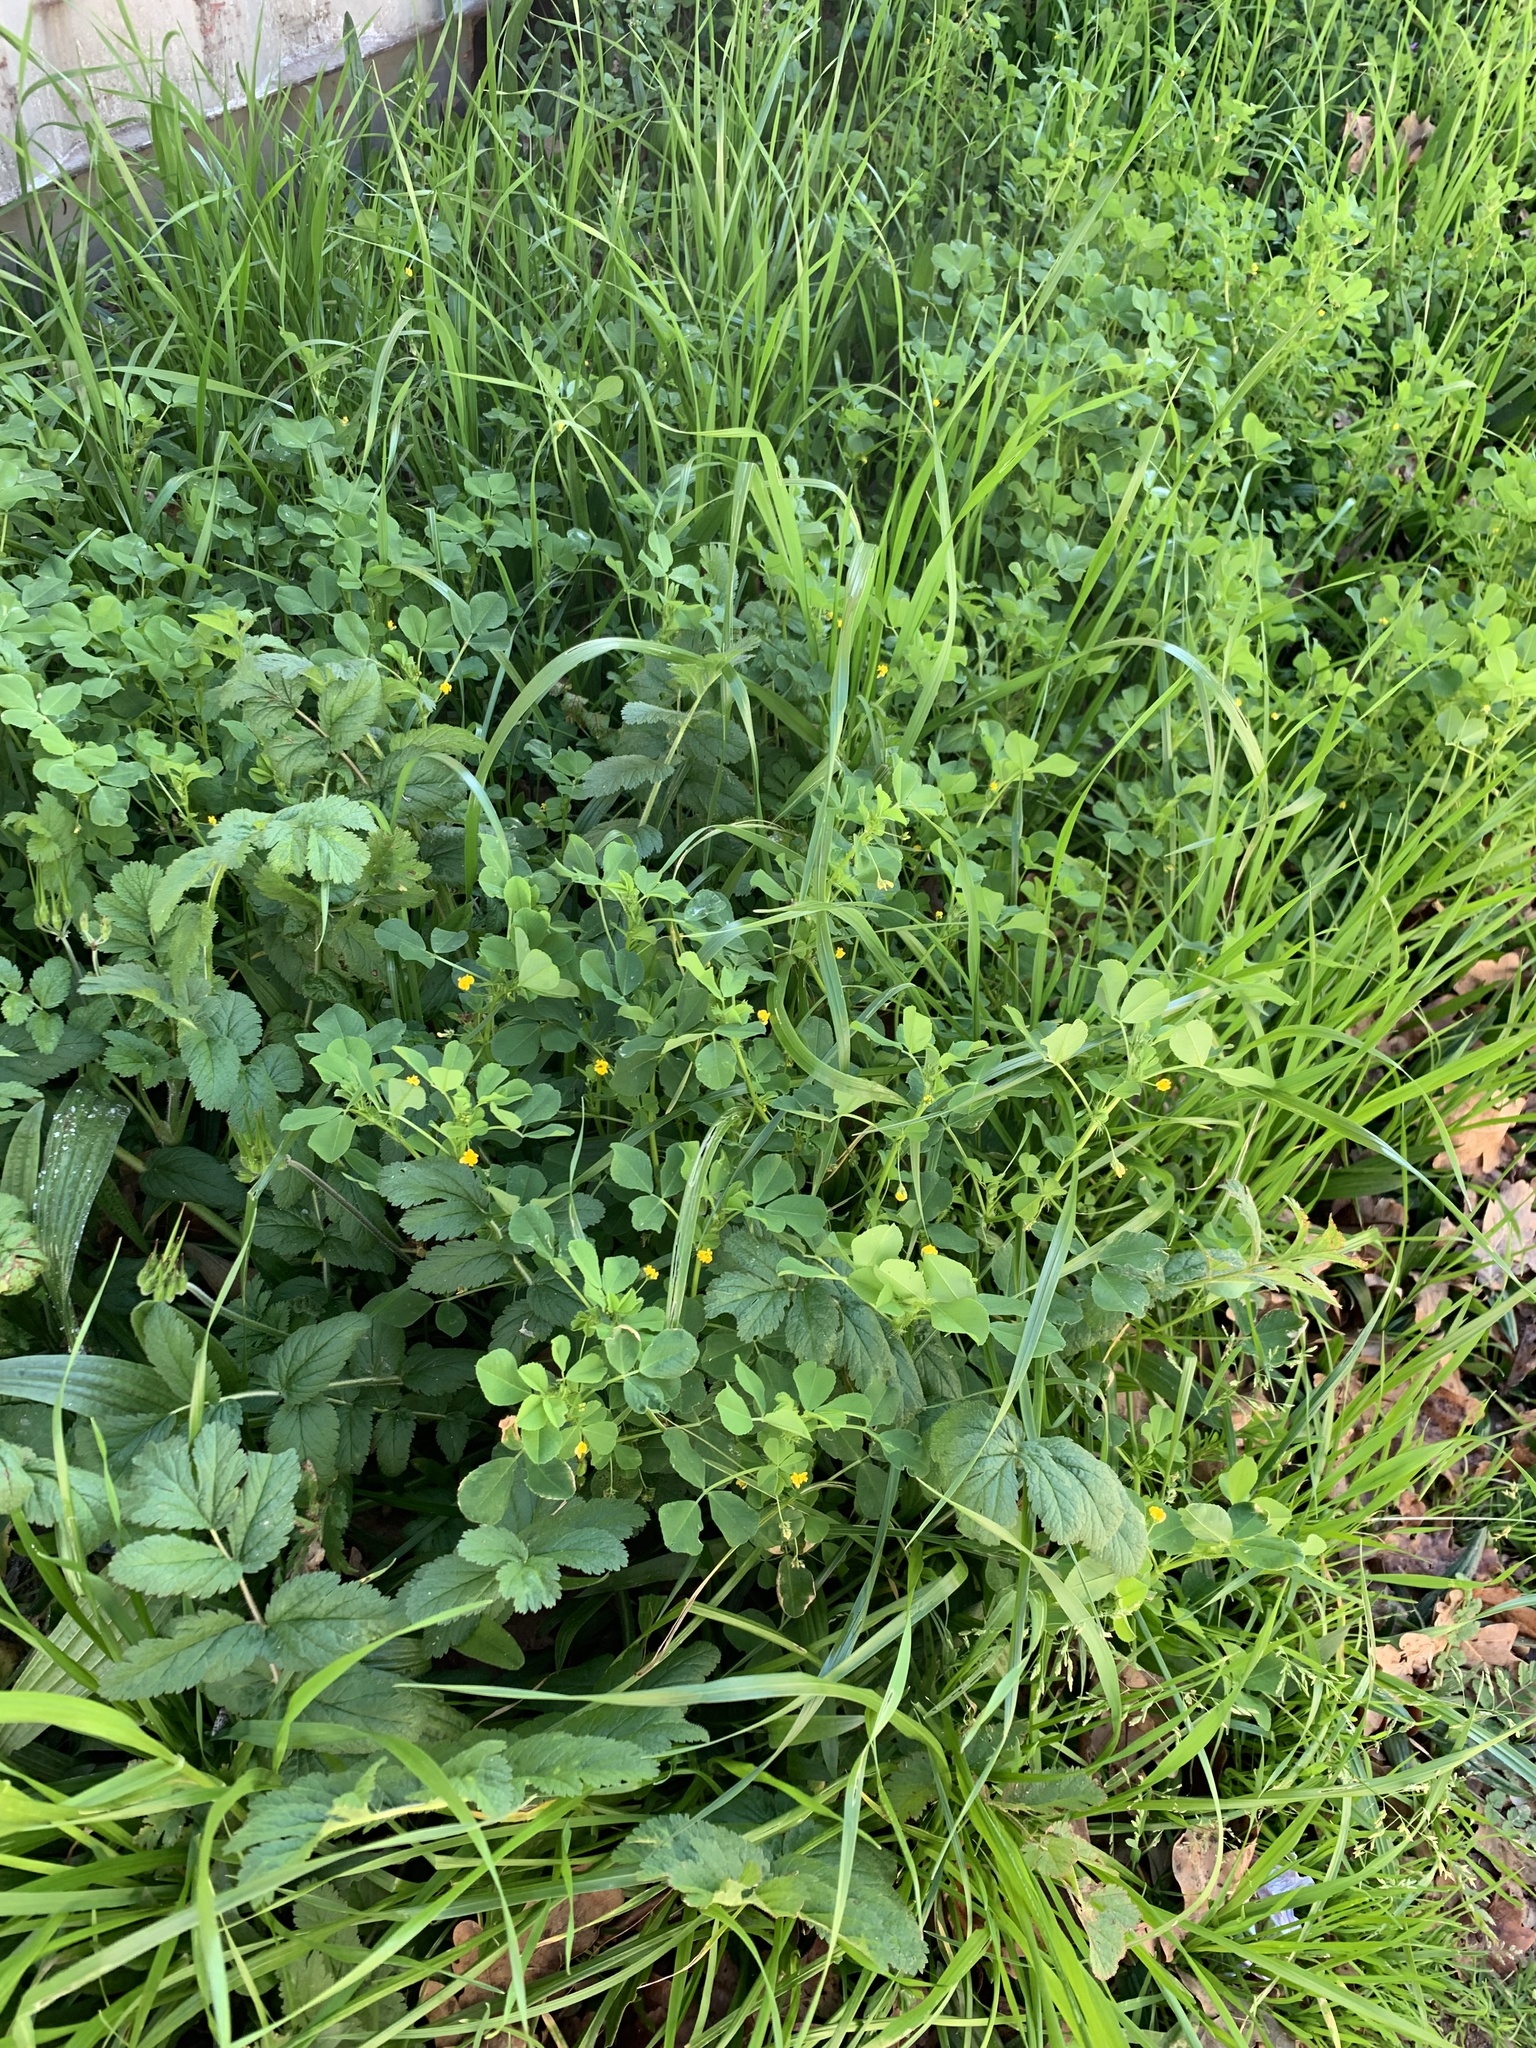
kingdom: Plantae
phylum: Tracheophyta
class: Magnoliopsida
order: Fabales
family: Fabaceae
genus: Medicago
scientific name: Medicago polymorpha
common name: Burclover
